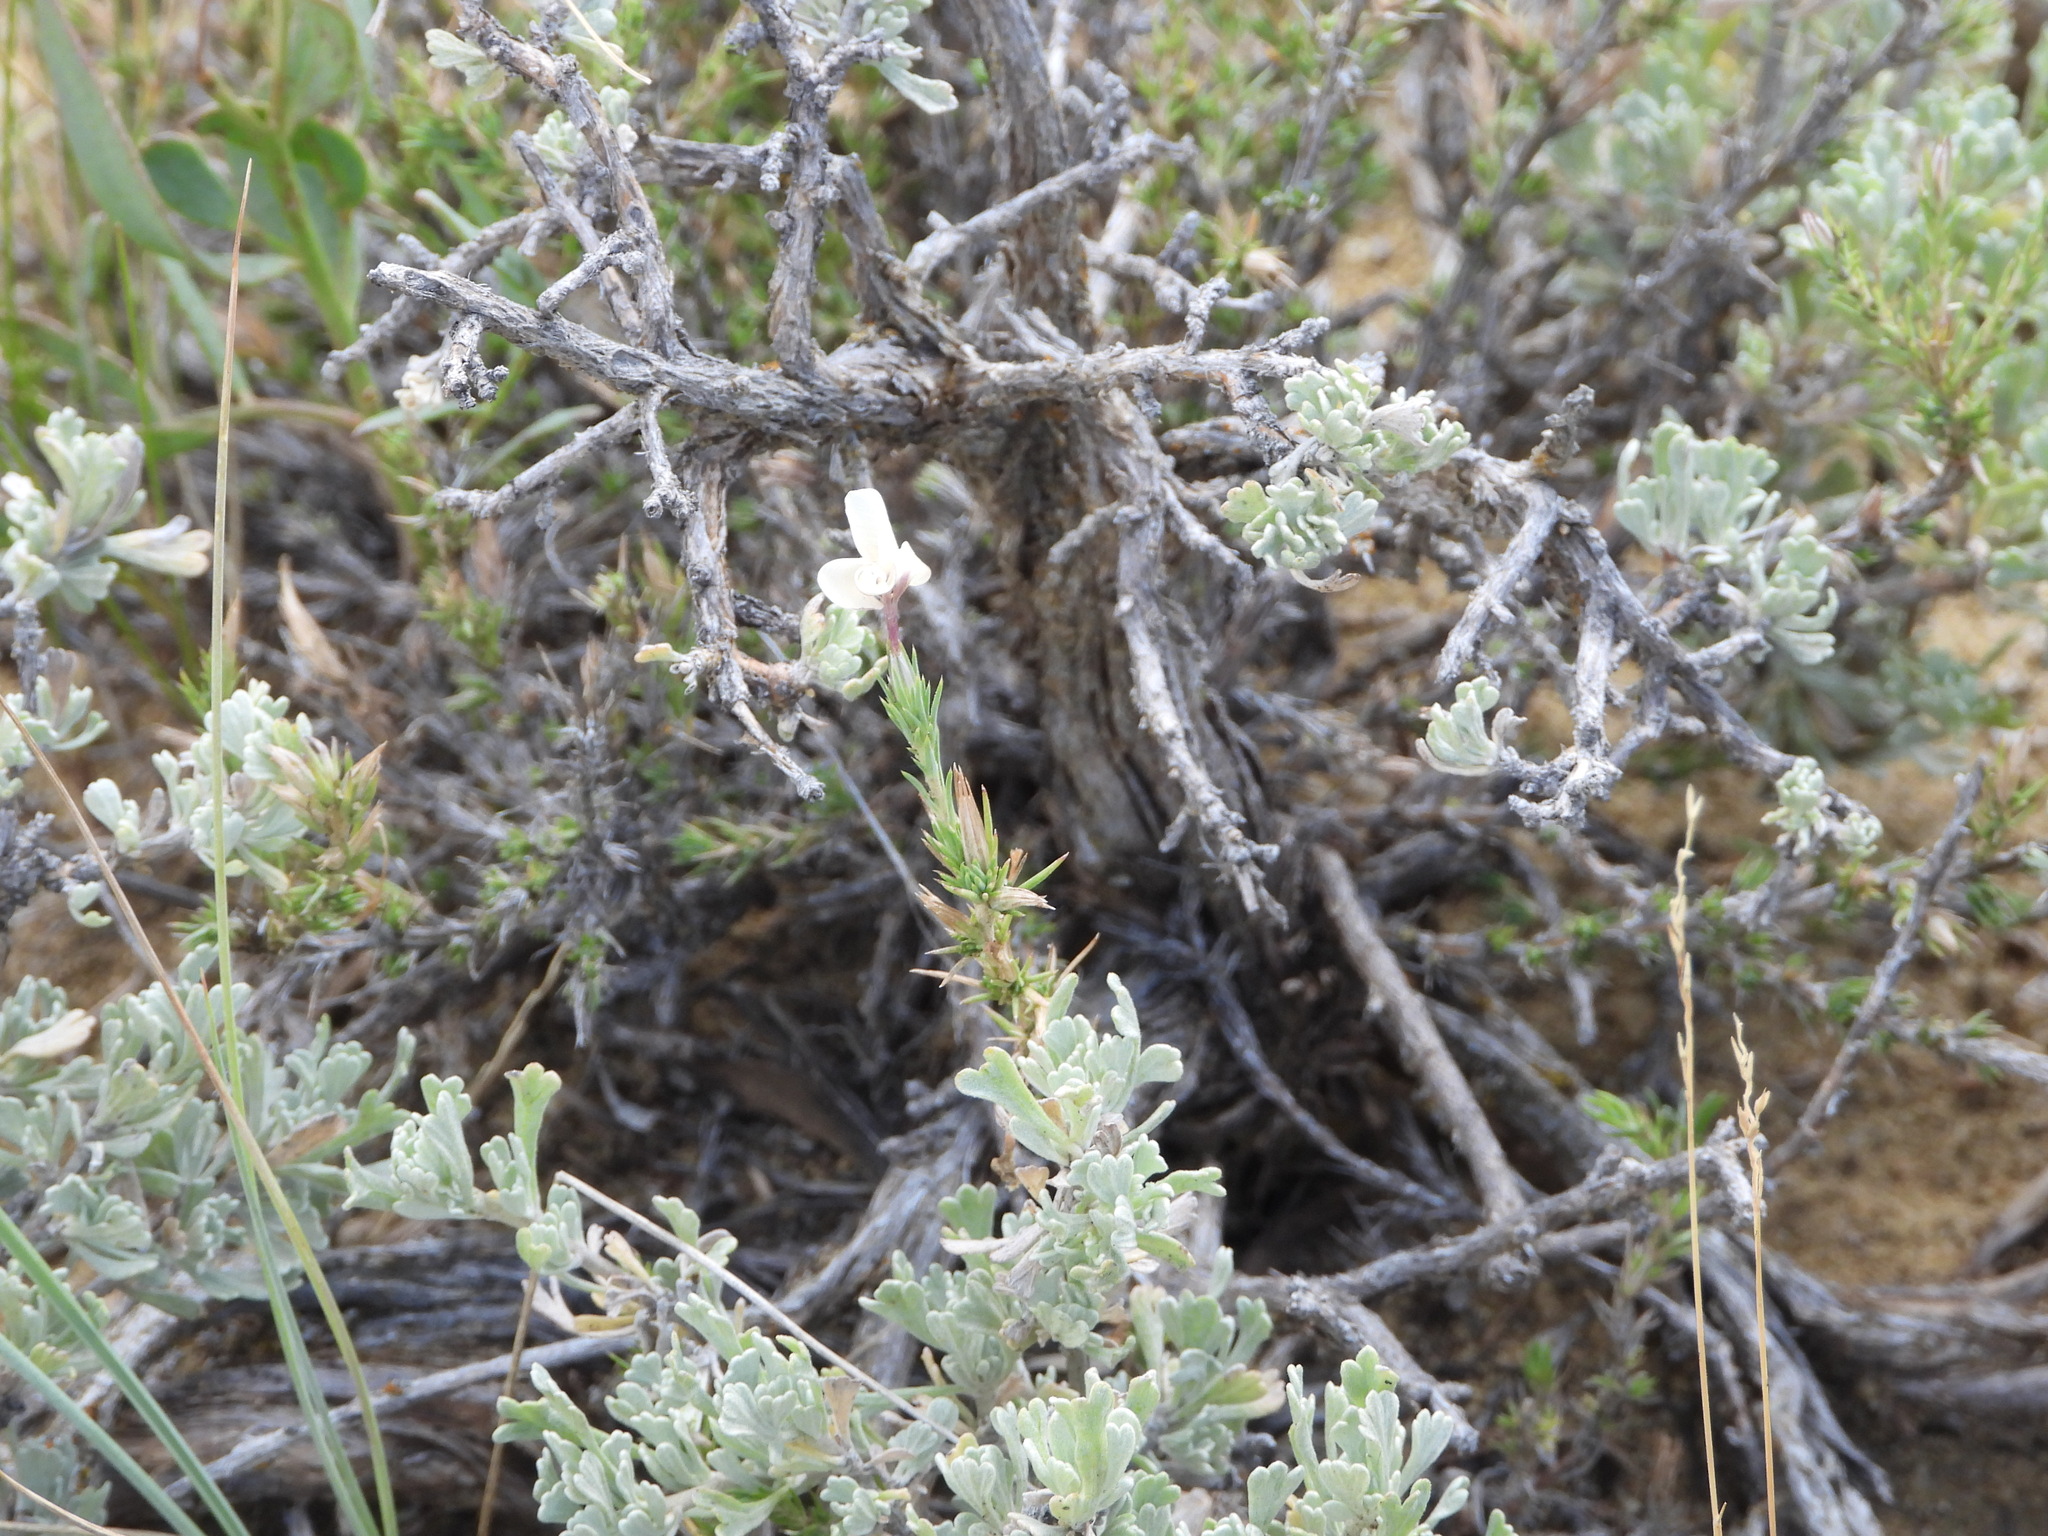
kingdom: Plantae
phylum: Tracheophyta
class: Magnoliopsida
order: Ericales
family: Polemoniaceae
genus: Linanthus
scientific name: Linanthus pungens
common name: Granite prickly phlox
